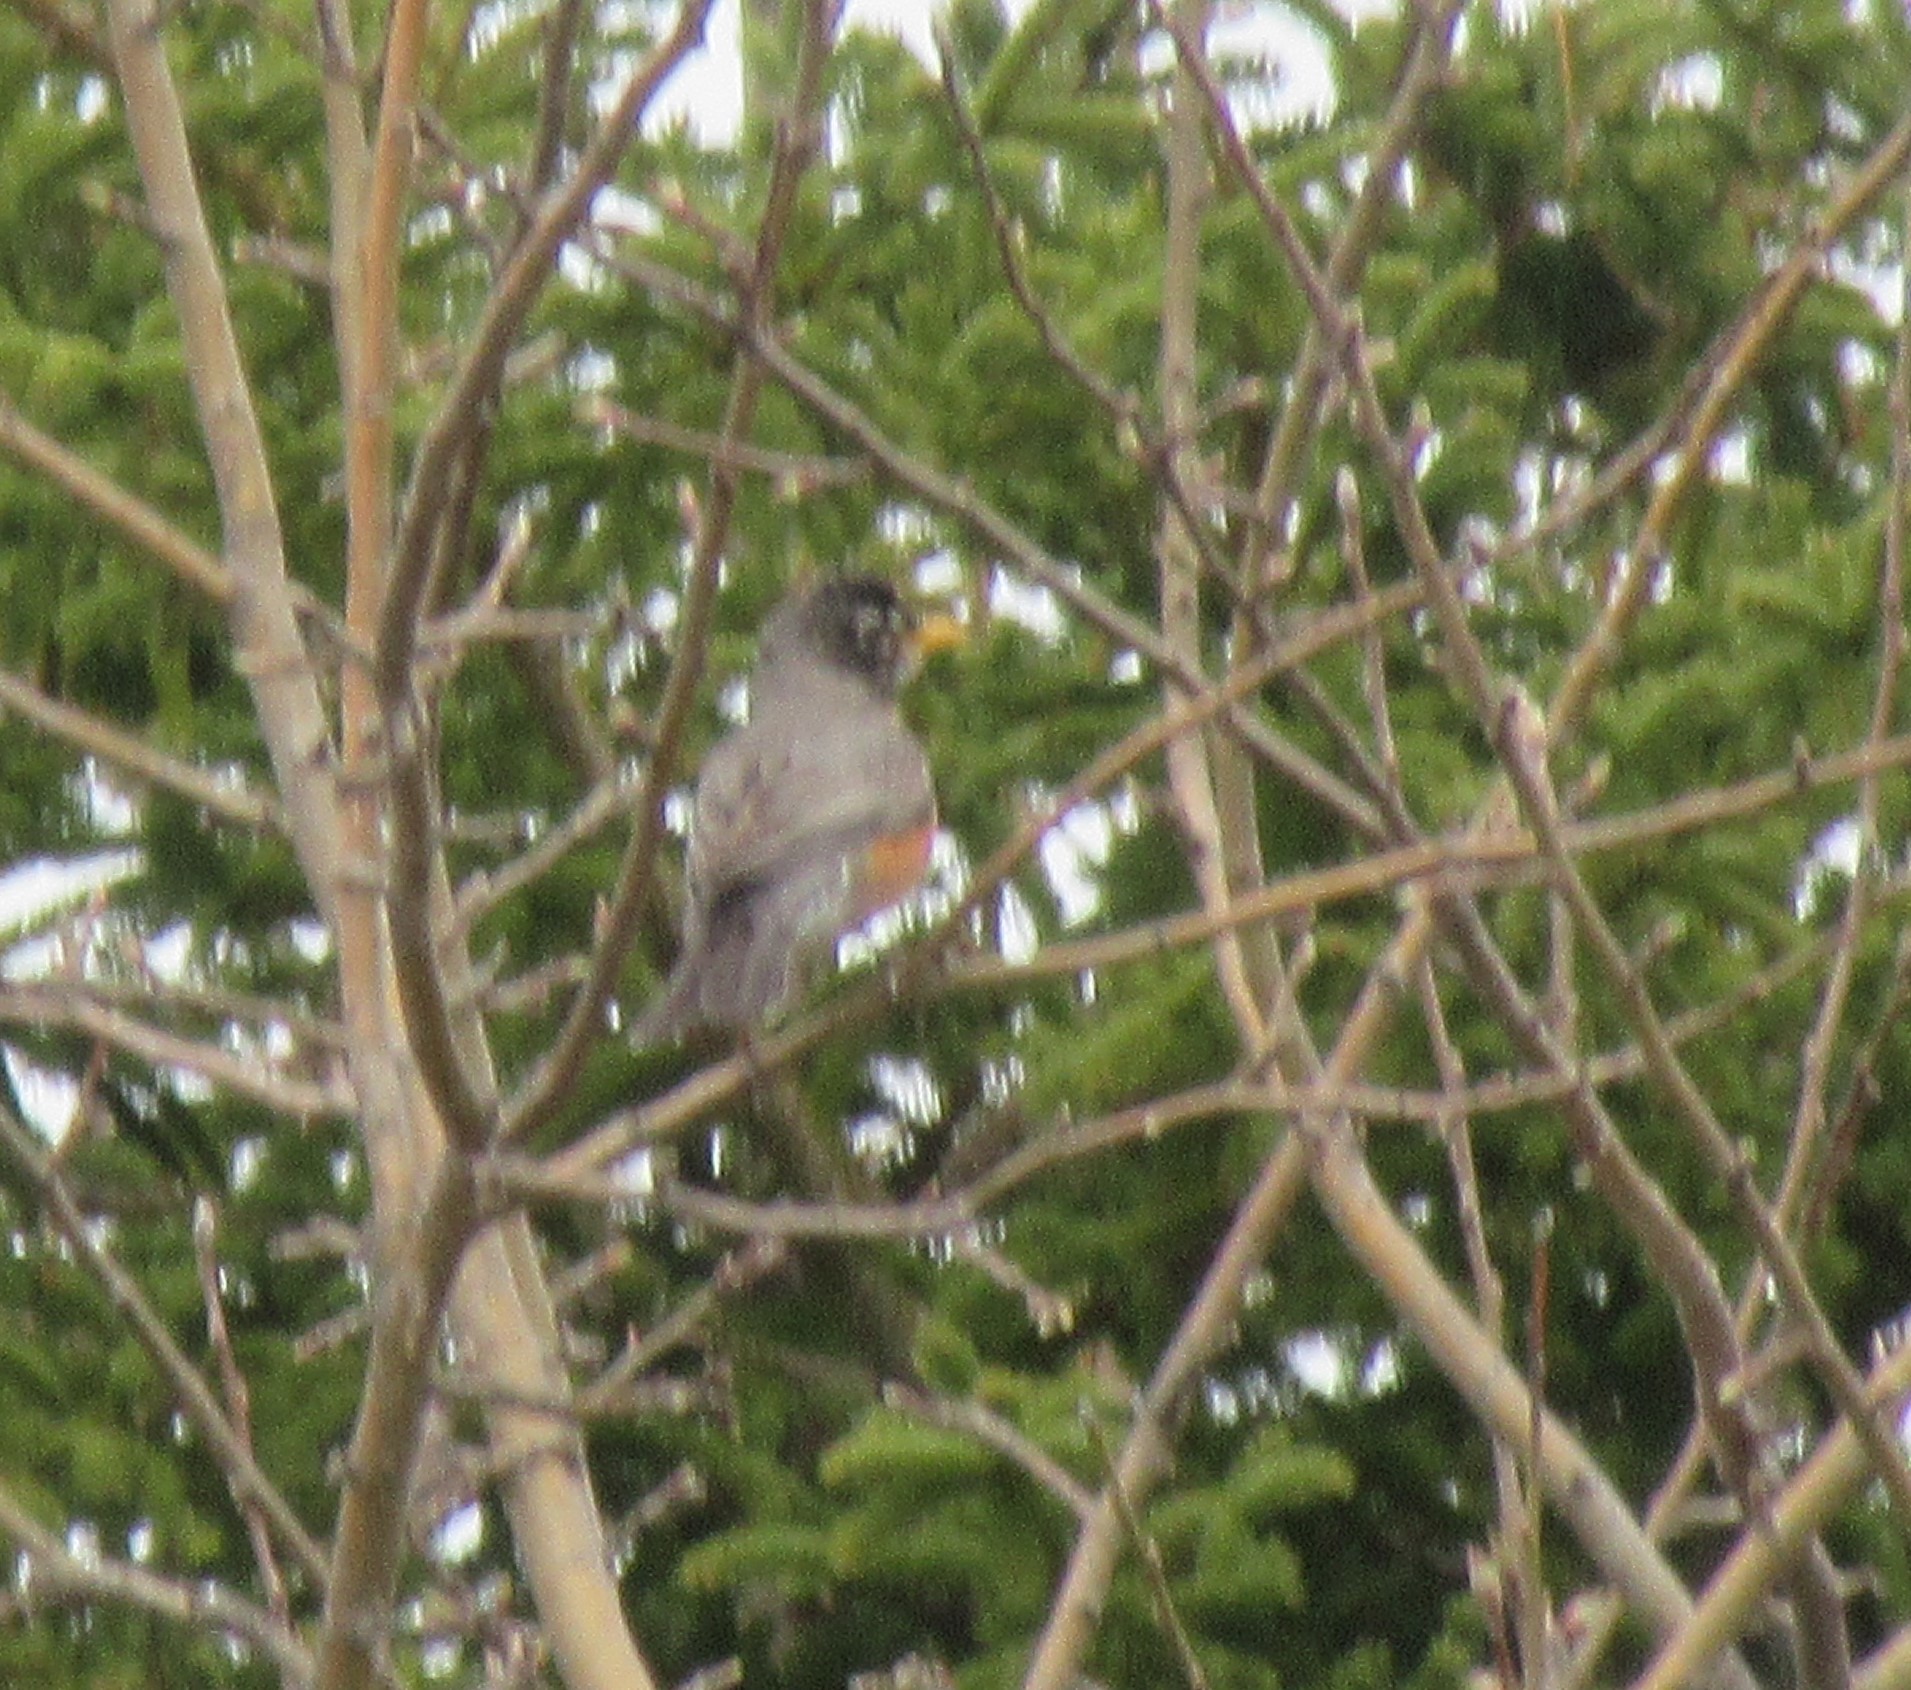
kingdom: Animalia
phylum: Chordata
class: Aves
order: Passeriformes
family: Turdidae
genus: Turdus
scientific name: Turdus migratorius
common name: American robin
